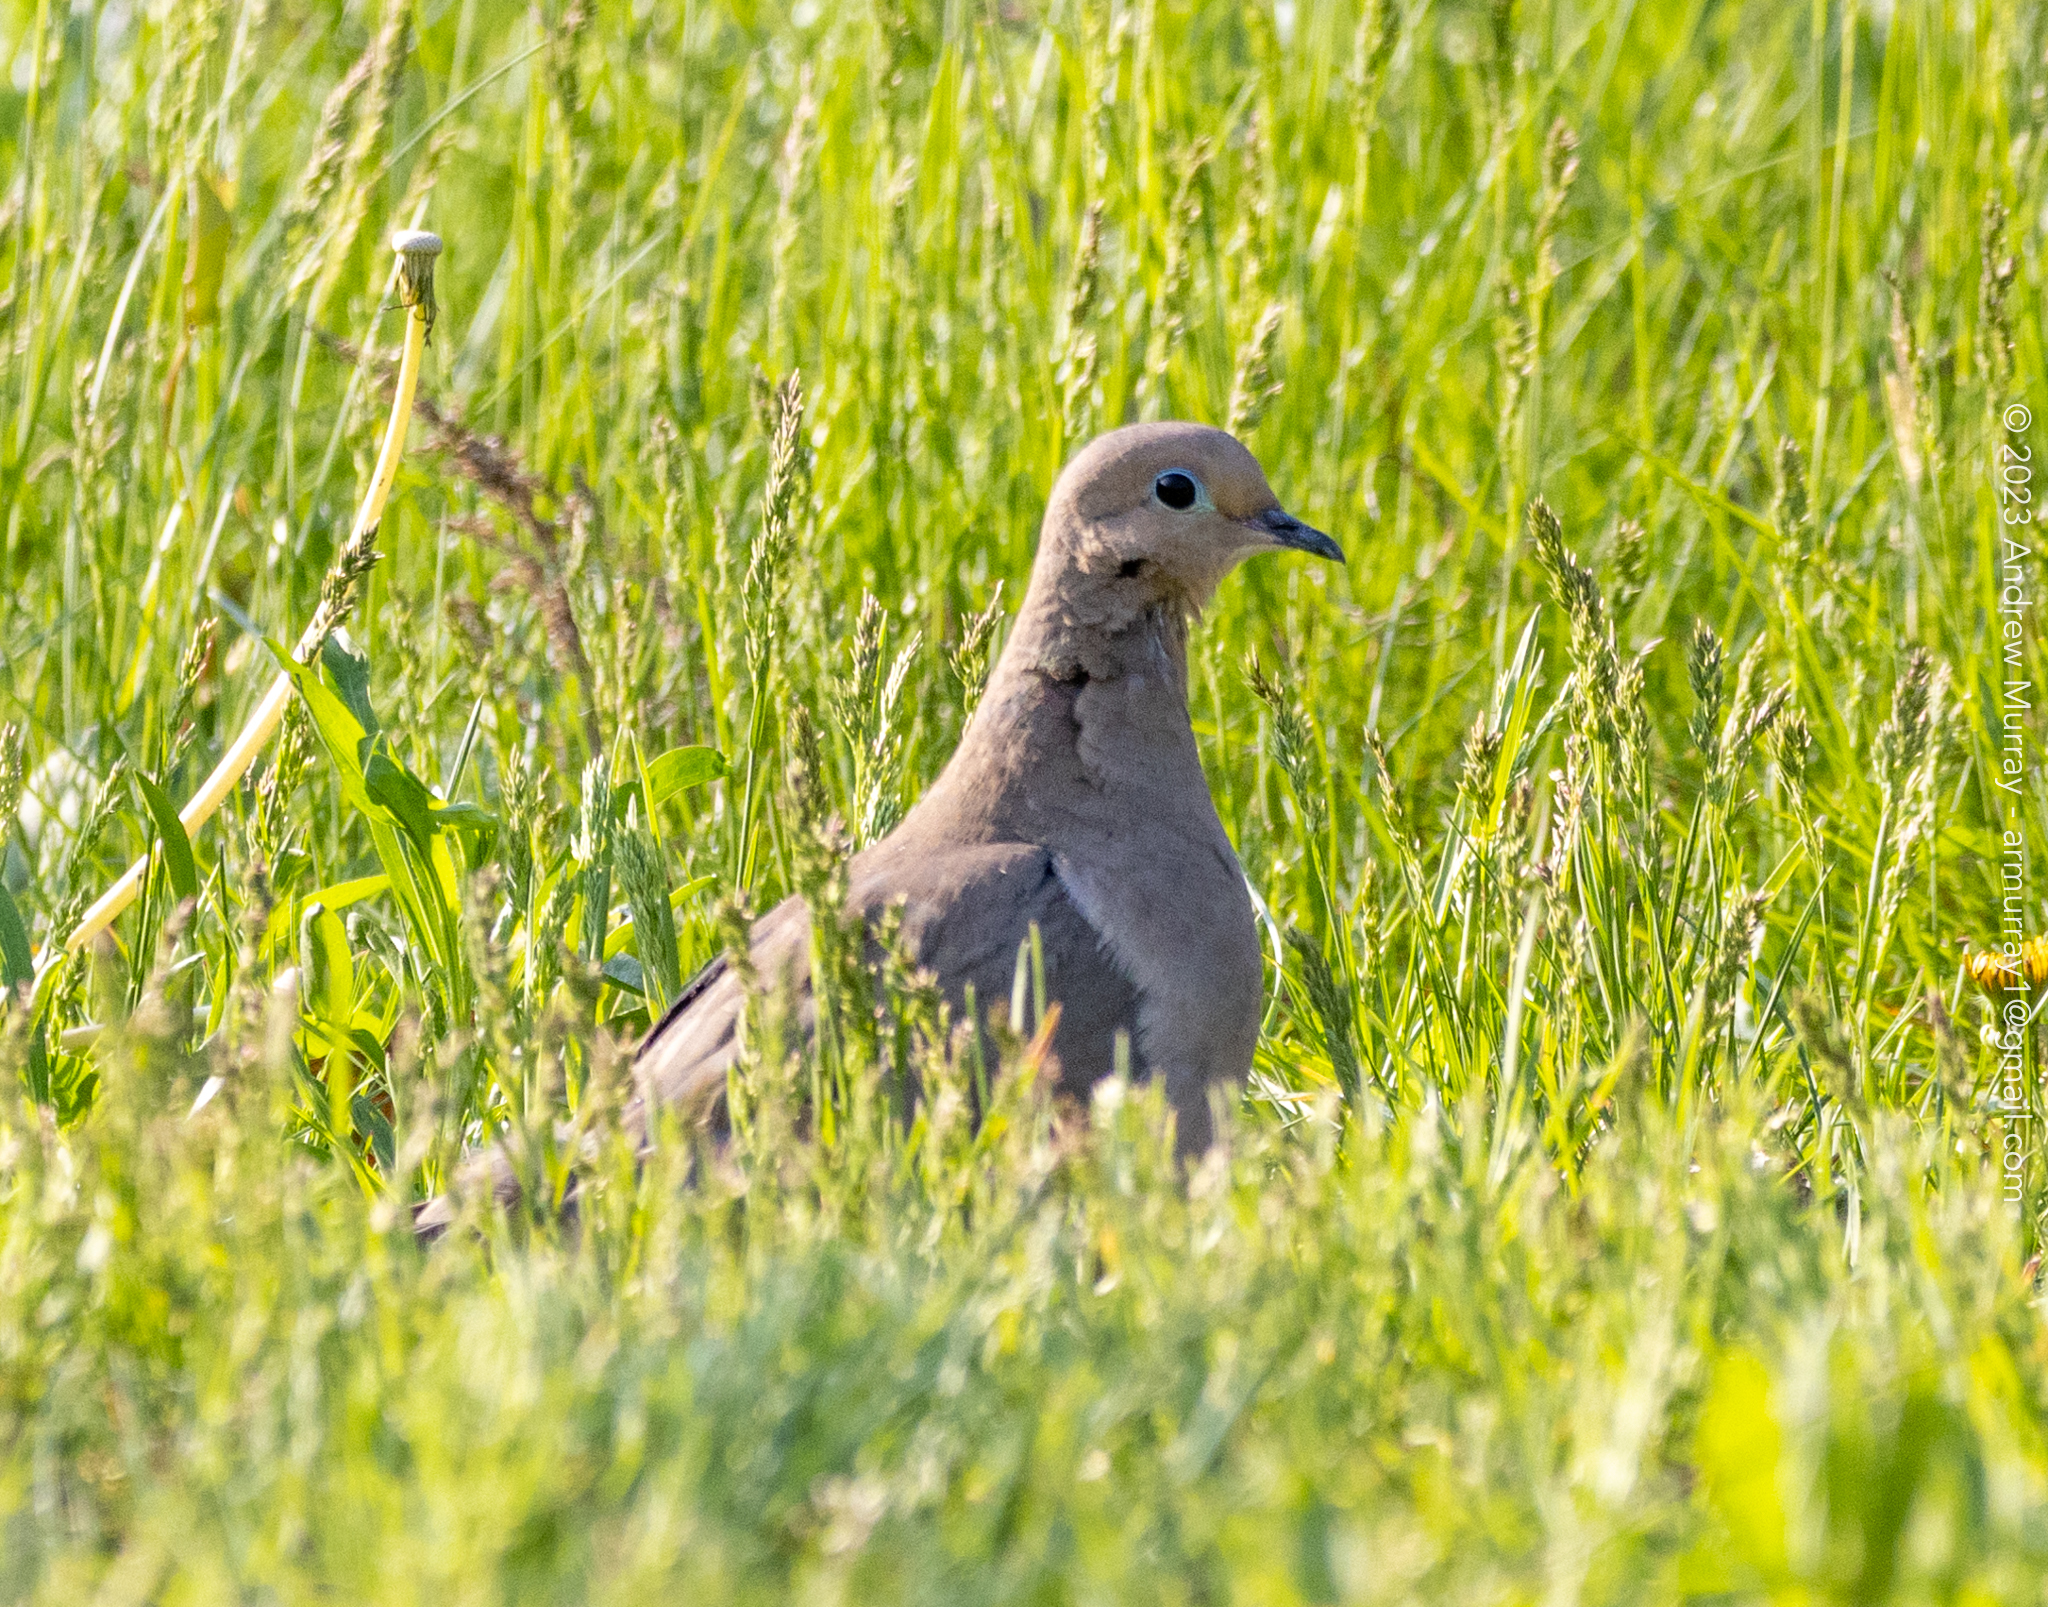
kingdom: Animalia
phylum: Chordata
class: Aves
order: Columbiformes
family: Columbidae
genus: Zenaida
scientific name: Zenaida macroura
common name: Mourning dove
